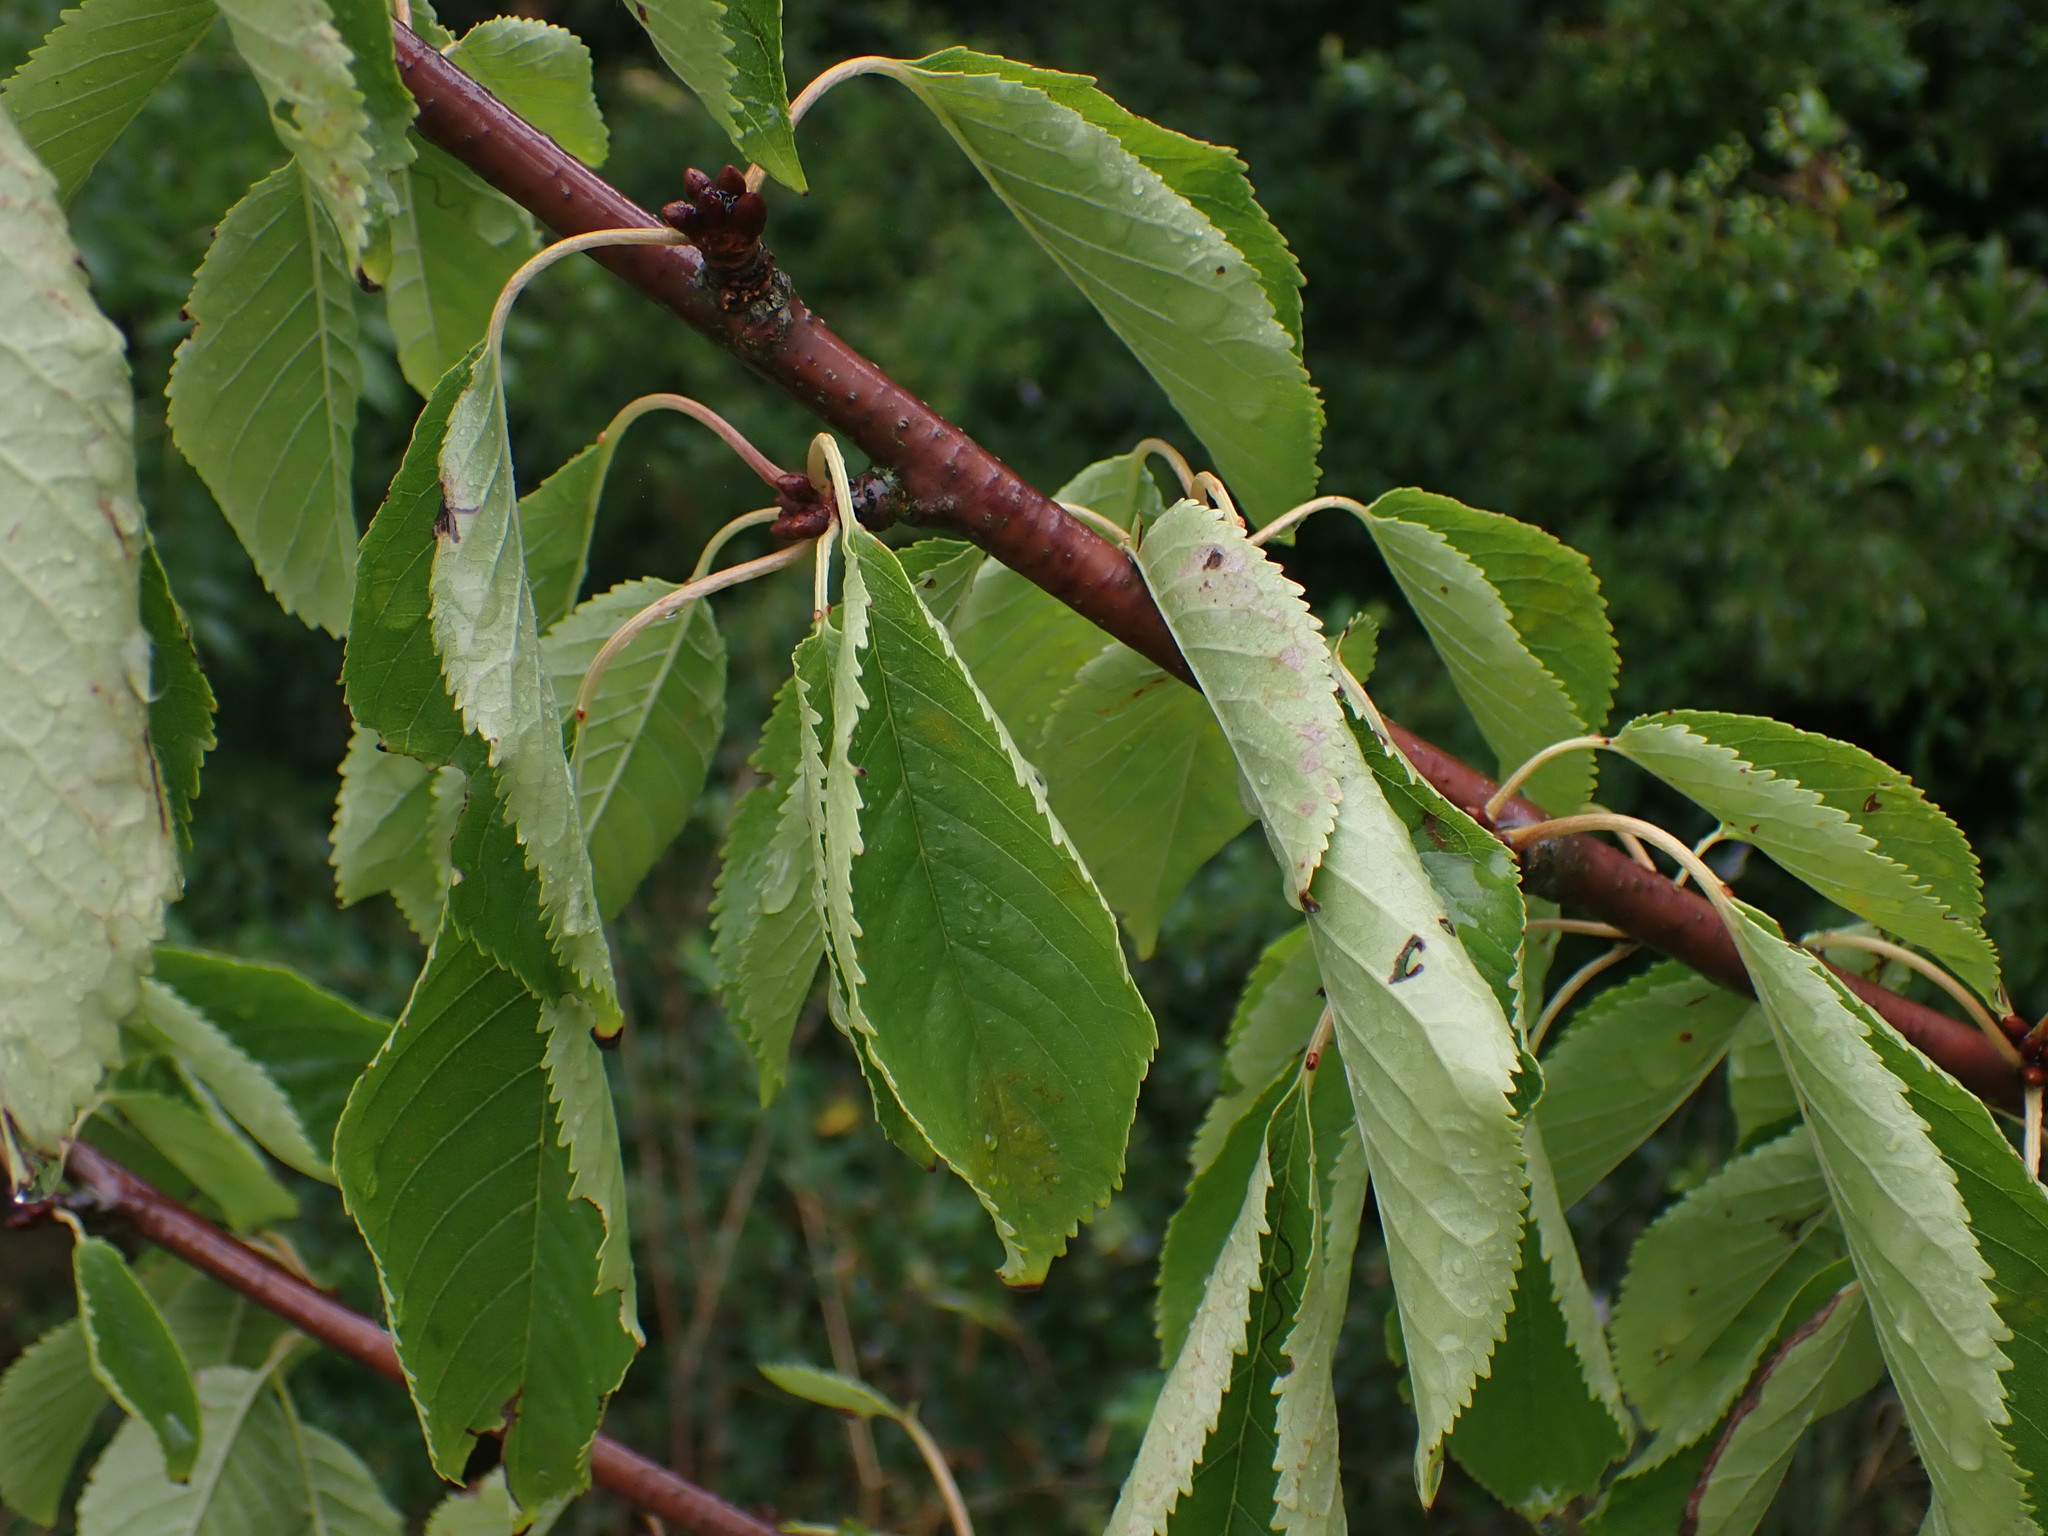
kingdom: Plantae
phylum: Tracheophyta
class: Magnoliopsida
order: Rosales
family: Rosaceae
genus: Prunus
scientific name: Prunus avium
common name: Sweet cherry
